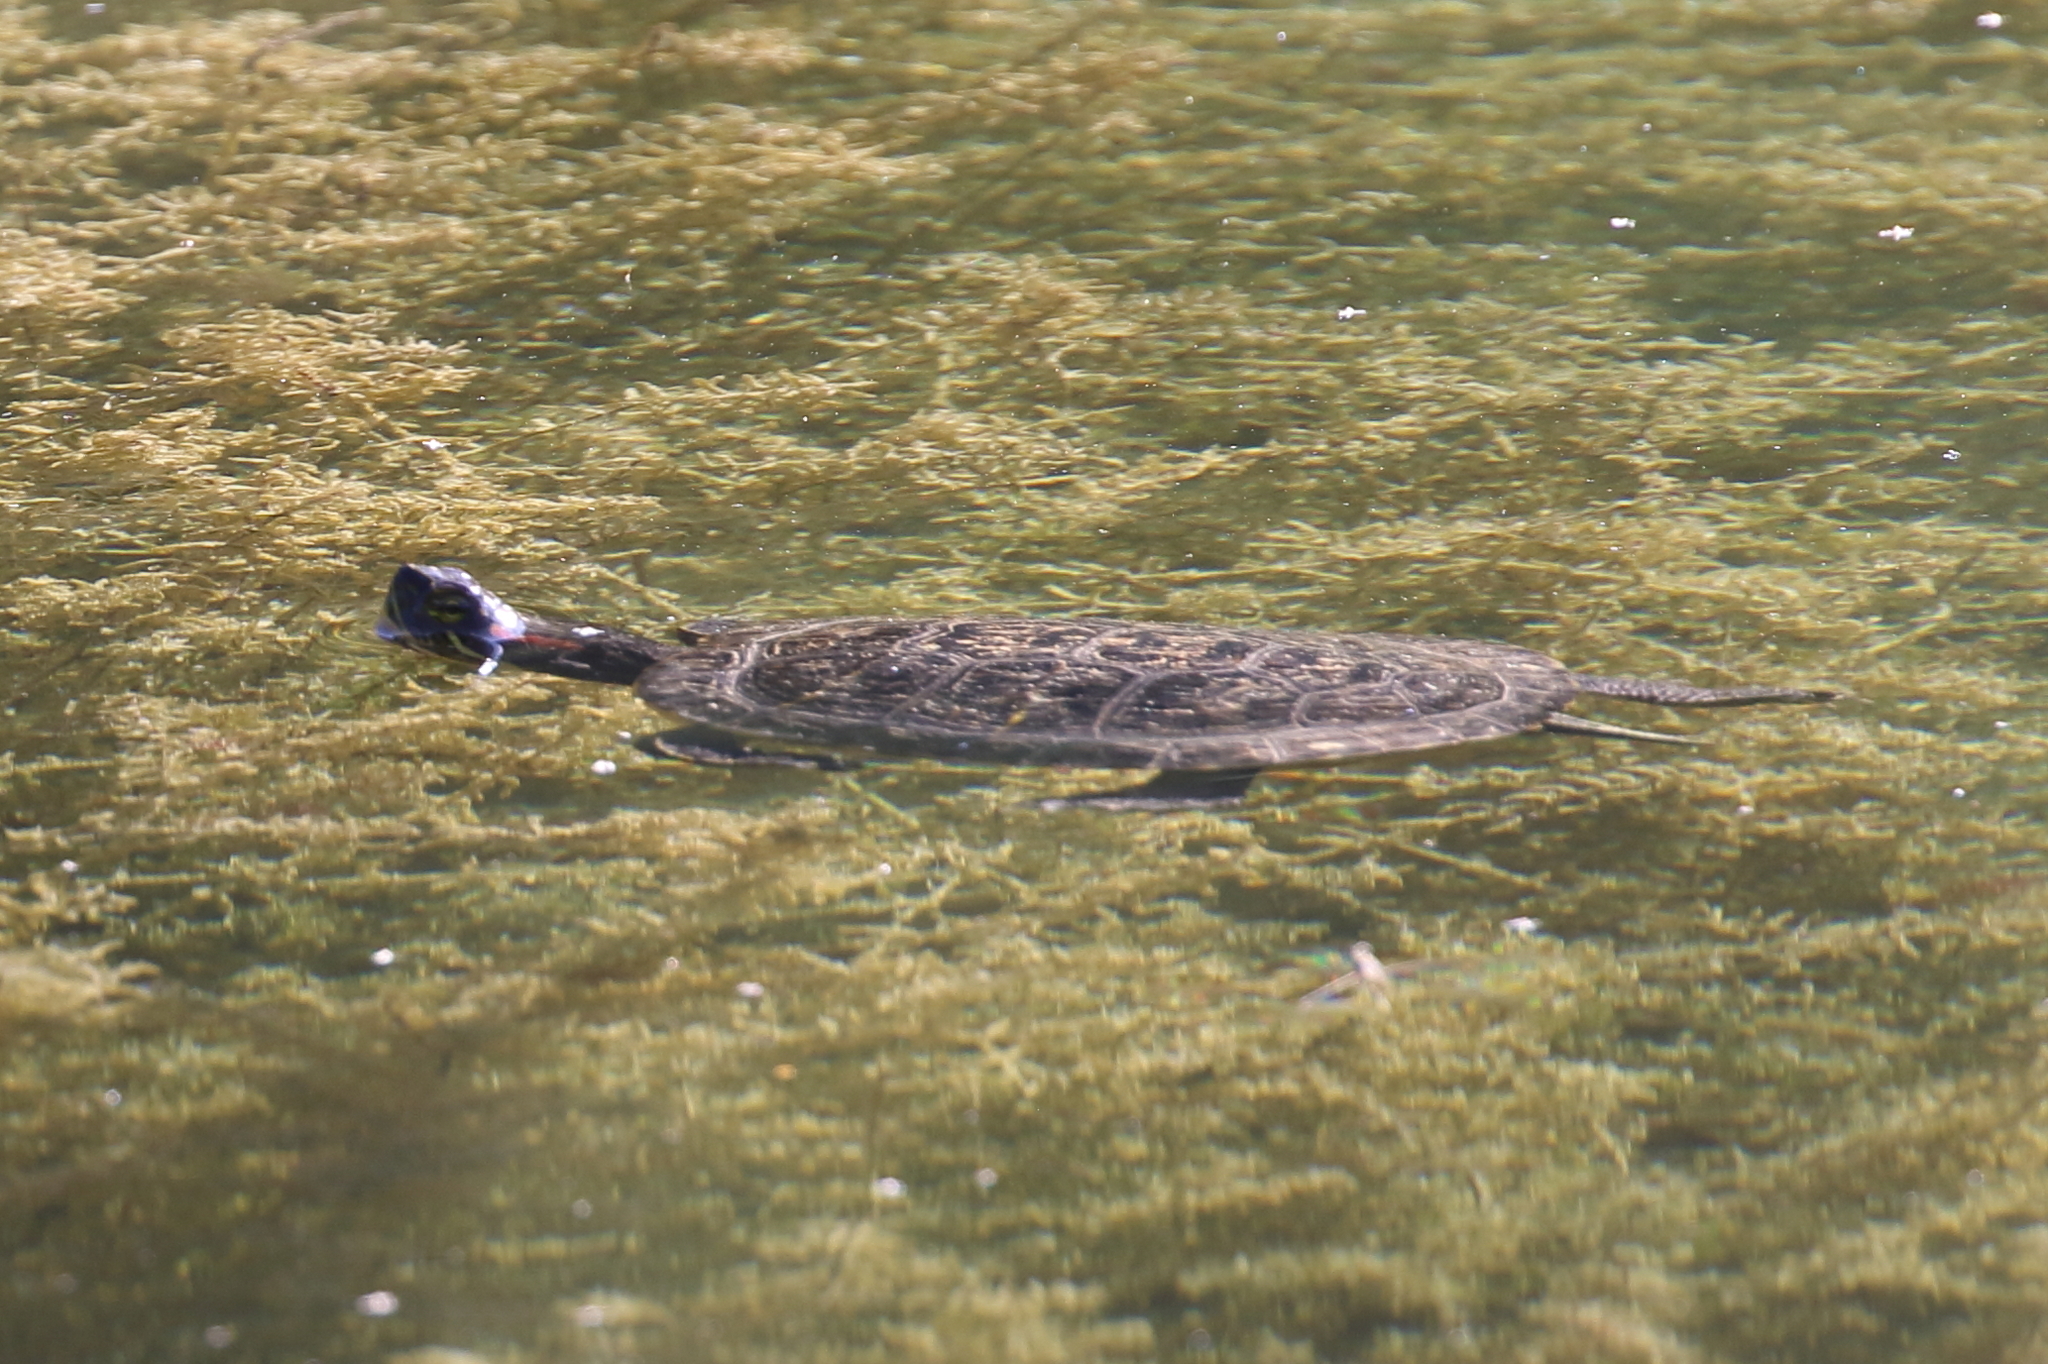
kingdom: Animalia
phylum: Chordata
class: Testudines
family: Emydidae
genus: Trachemys
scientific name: Trachemys scripta
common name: Slider
